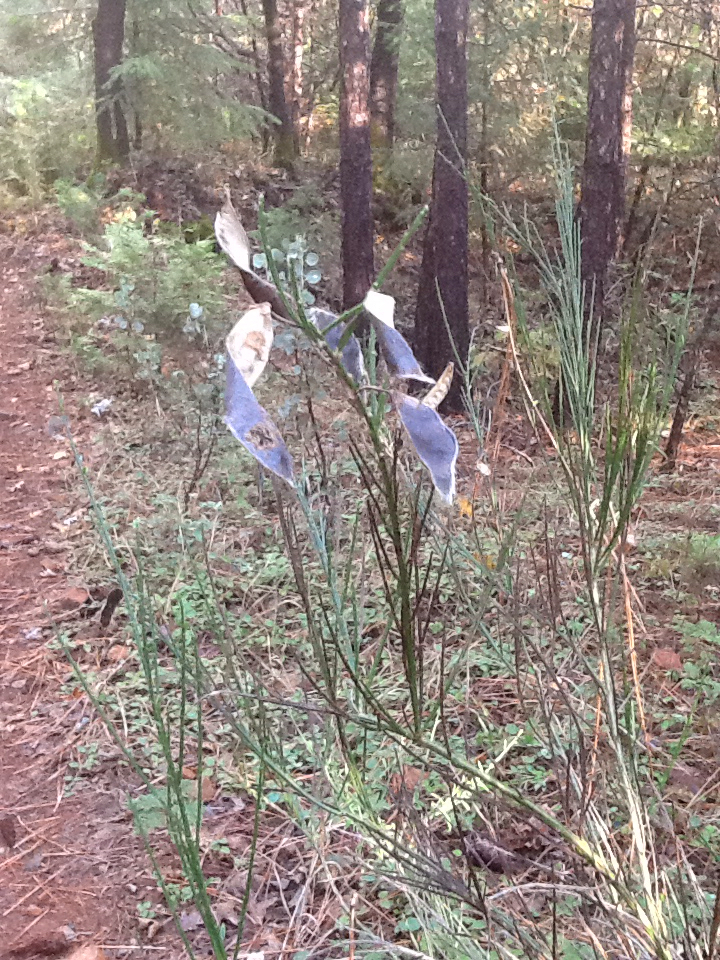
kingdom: Plantae
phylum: Tracheophyta
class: Magnoliopsida
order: Fabales
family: Fabaceae
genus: Cytisus
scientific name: Cytisus scoparius
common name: Scotch broom
